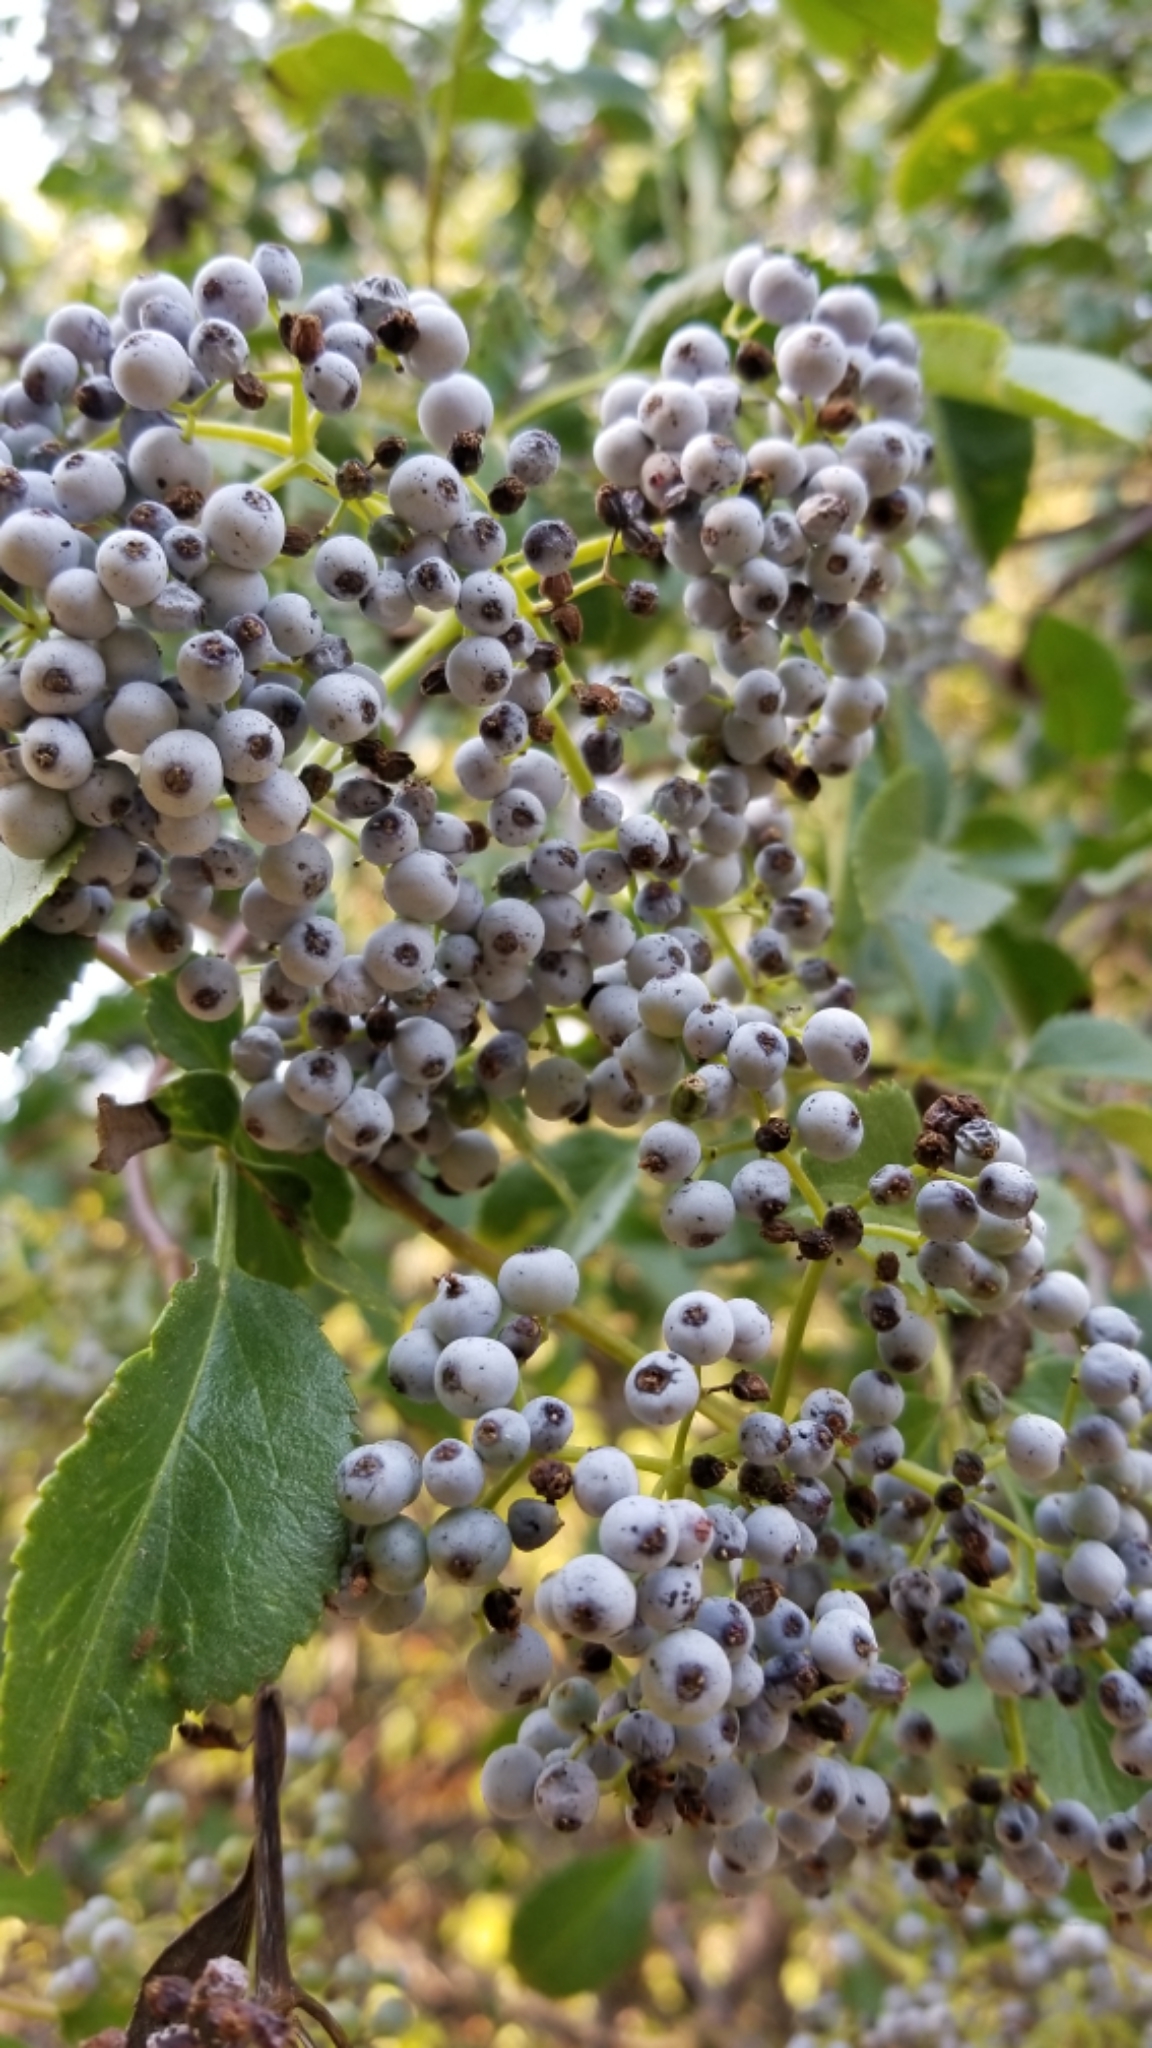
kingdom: Plantae
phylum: Tracheophyta
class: Magnoliopsida
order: Dipsacales
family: Viburnaceae
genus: Sambucus
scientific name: Sambucus cerulea
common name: Blue elder
